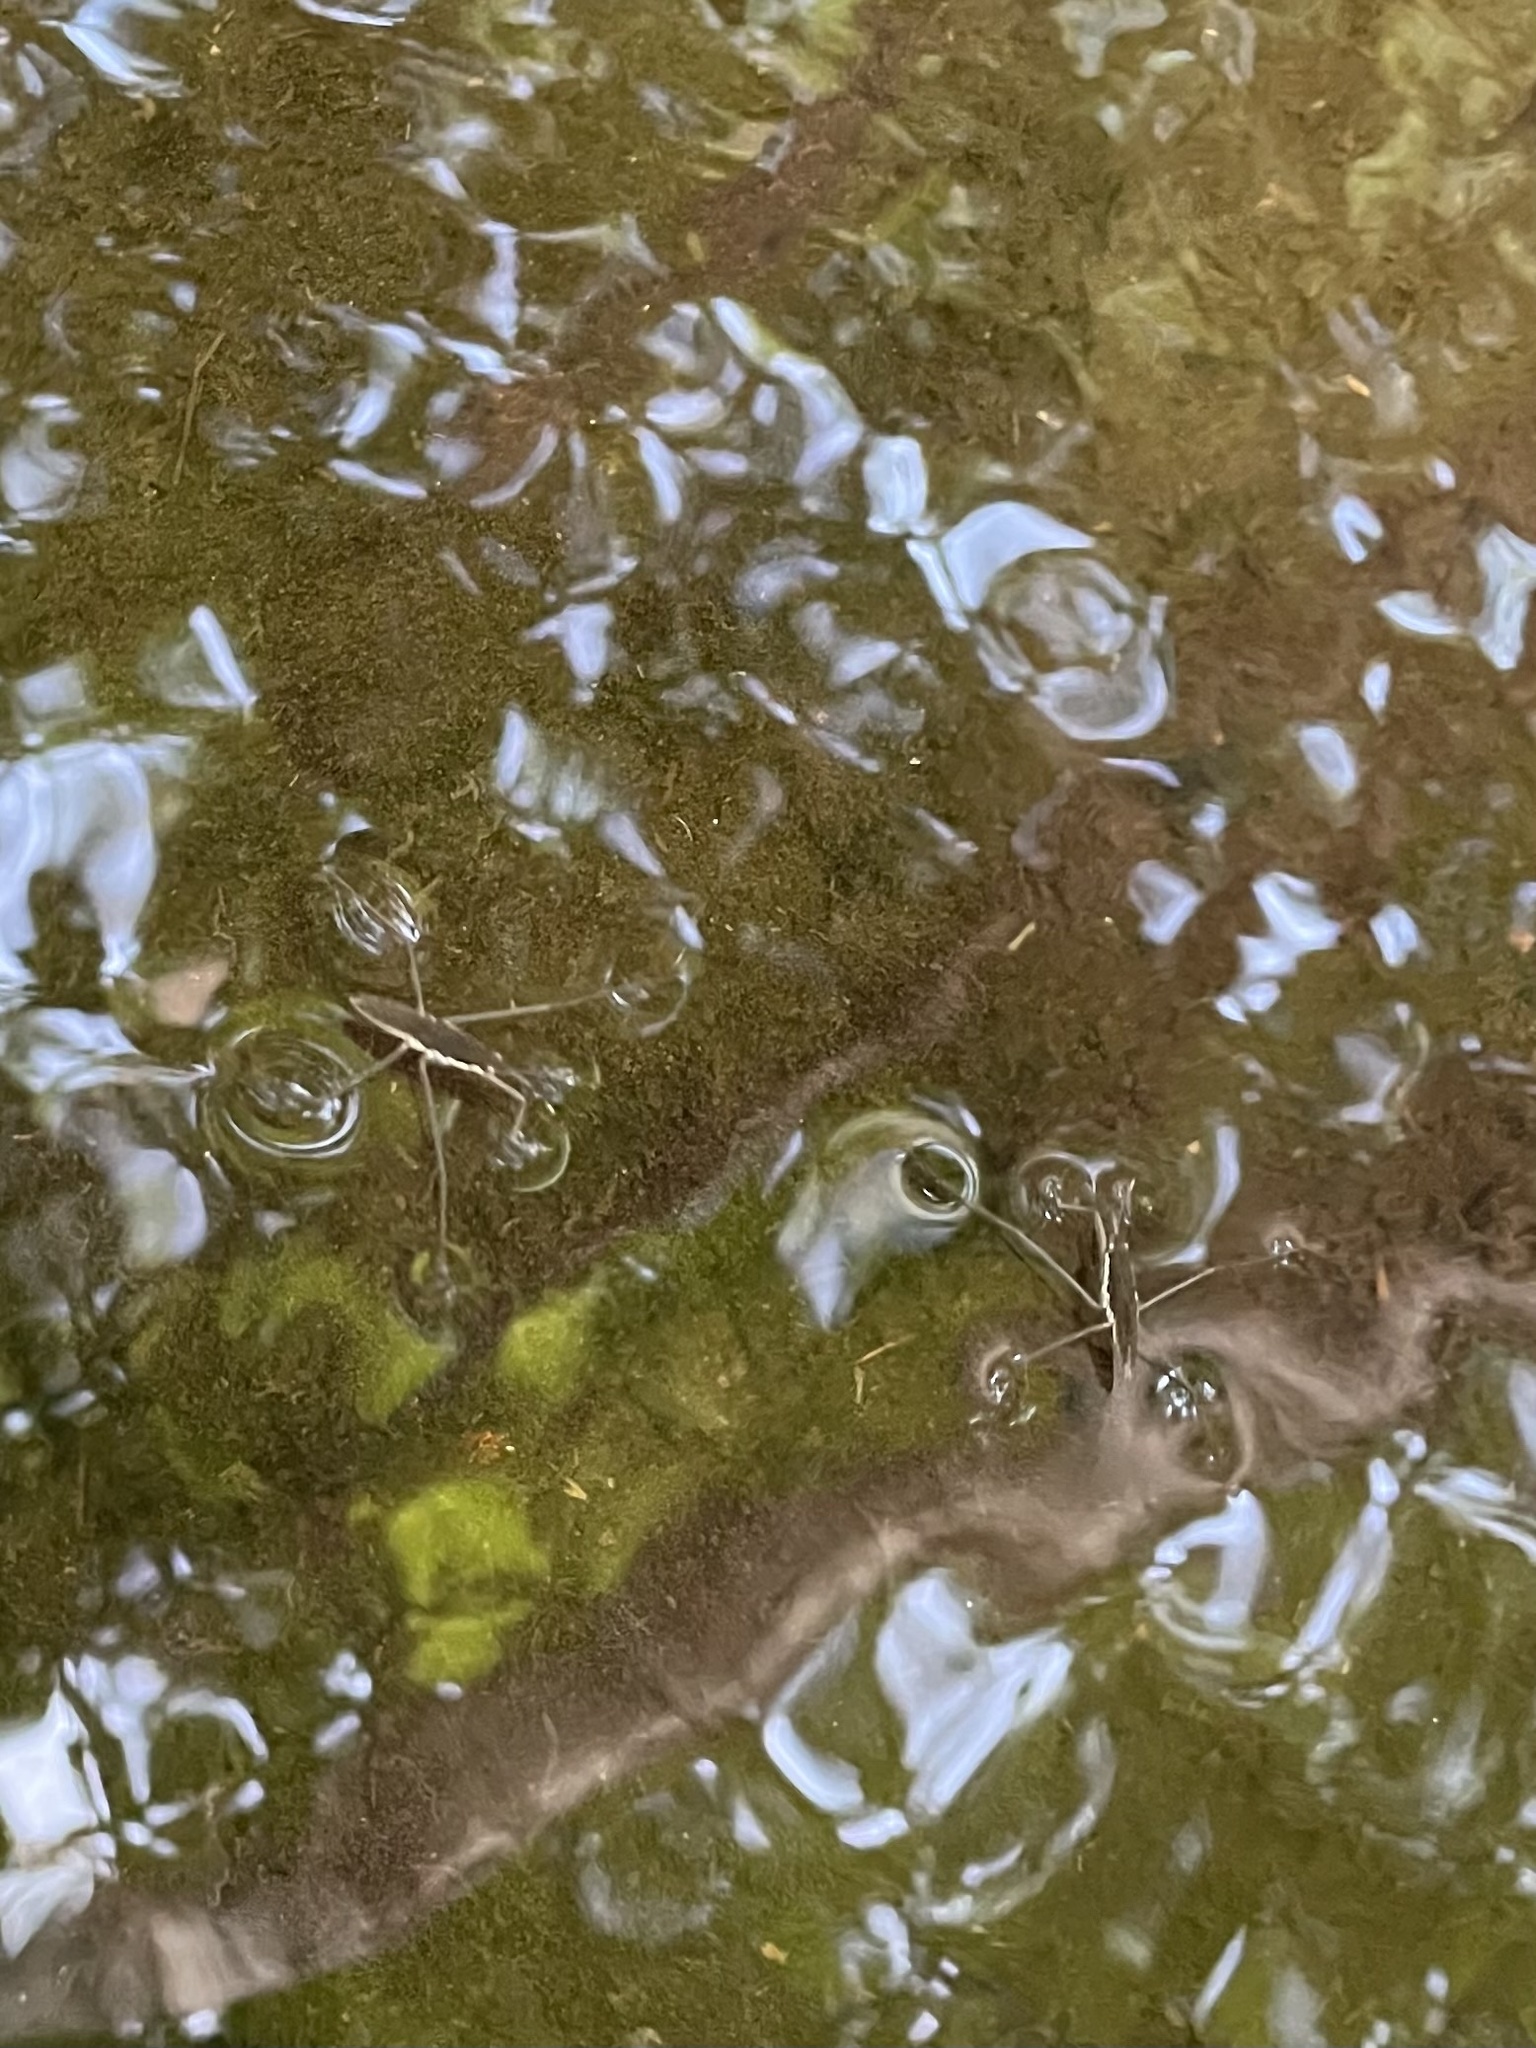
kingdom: Animalia
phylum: Arthropoda
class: Insecta
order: Hemiptera
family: Gerridae
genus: Aquarius
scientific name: Aquarius remigis
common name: Common water strider
